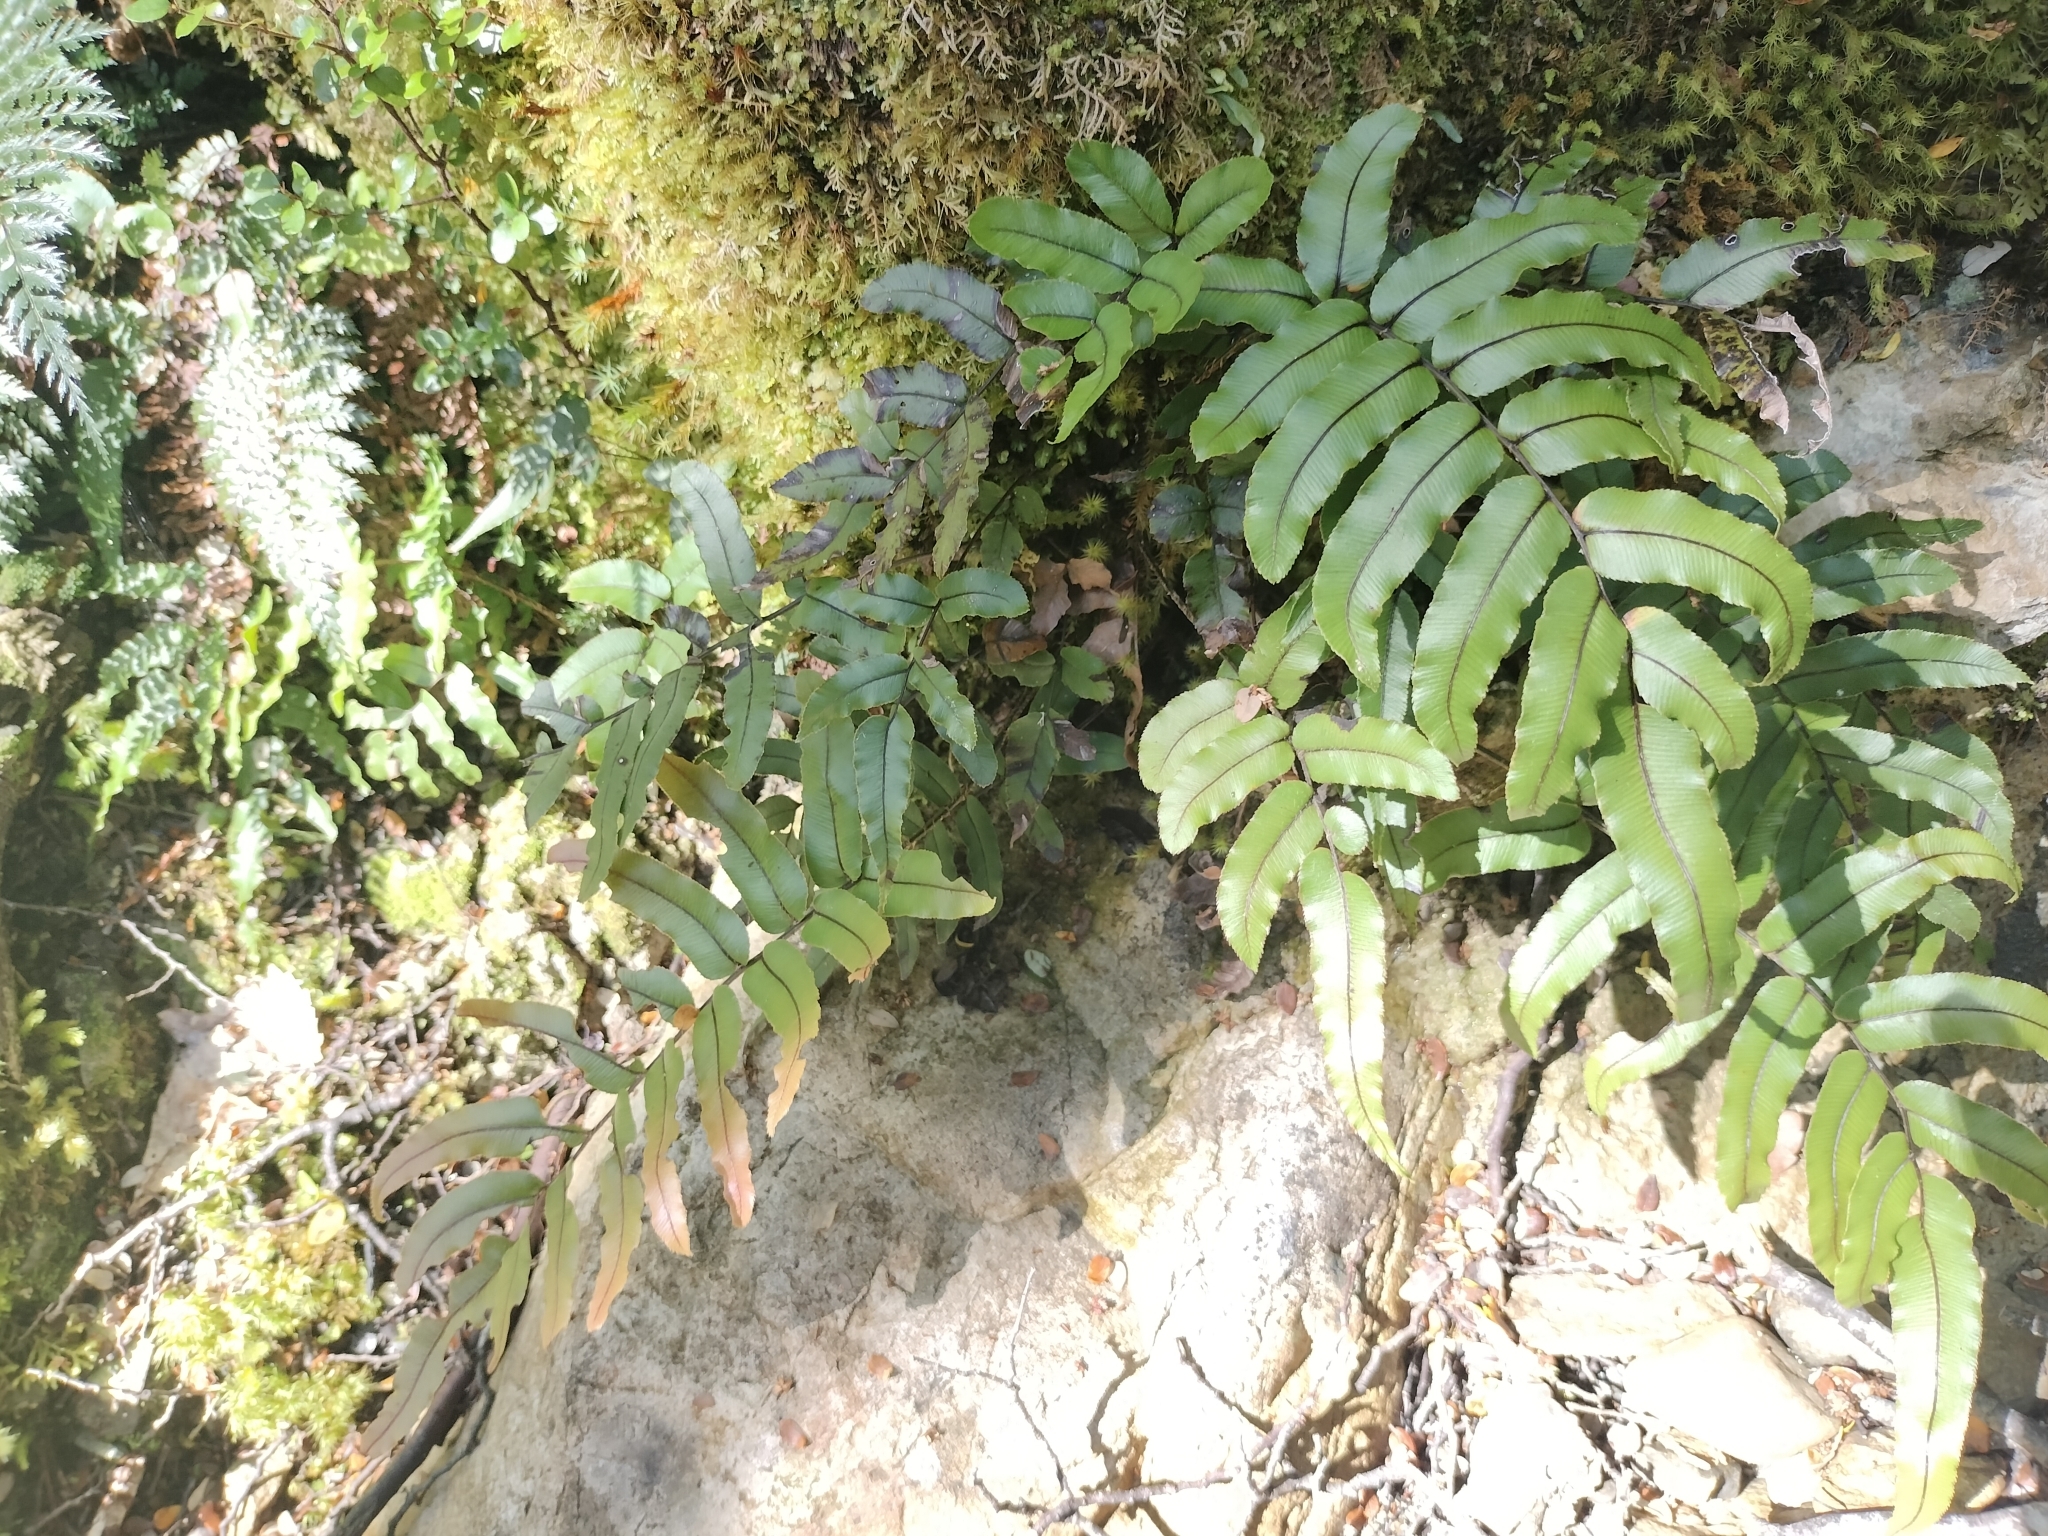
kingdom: Plantae
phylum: Tracheophyta
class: Polypodiopsida
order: Polypodiales
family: Blechnaceae
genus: Parablechnum
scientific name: Parablechnum procerum
